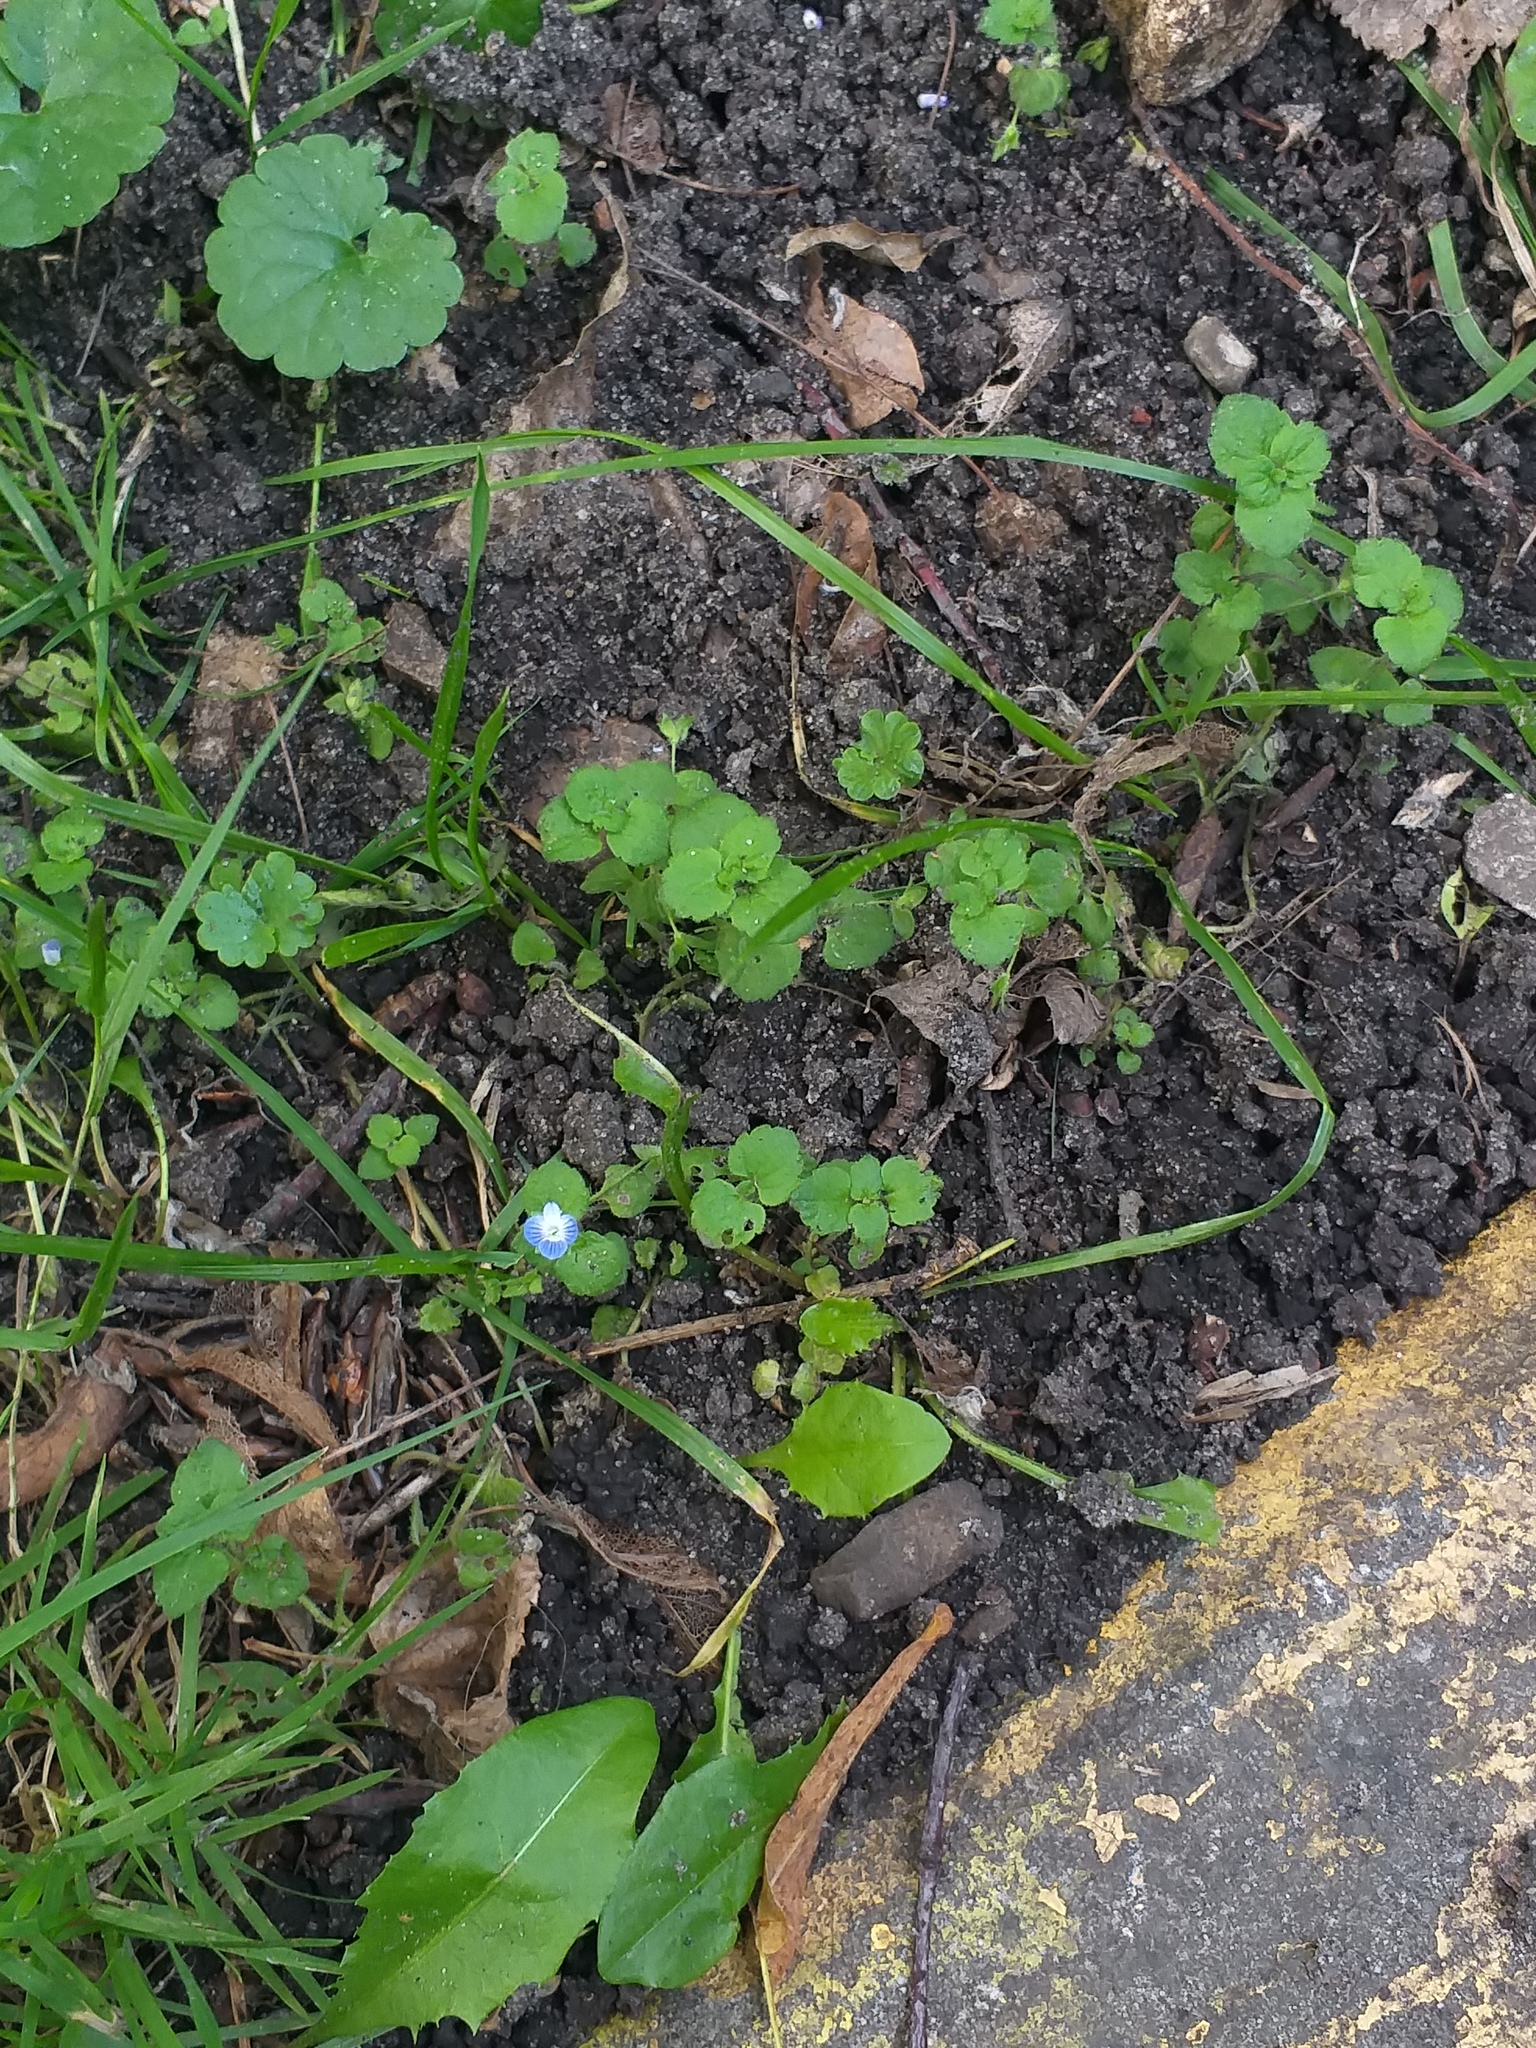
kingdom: Plantae
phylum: Tracheophyta
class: Magnoliopsida
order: Lamiales
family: Plantaginaceae
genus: Veronica
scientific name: Veronica persica
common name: Common field-speedwell
